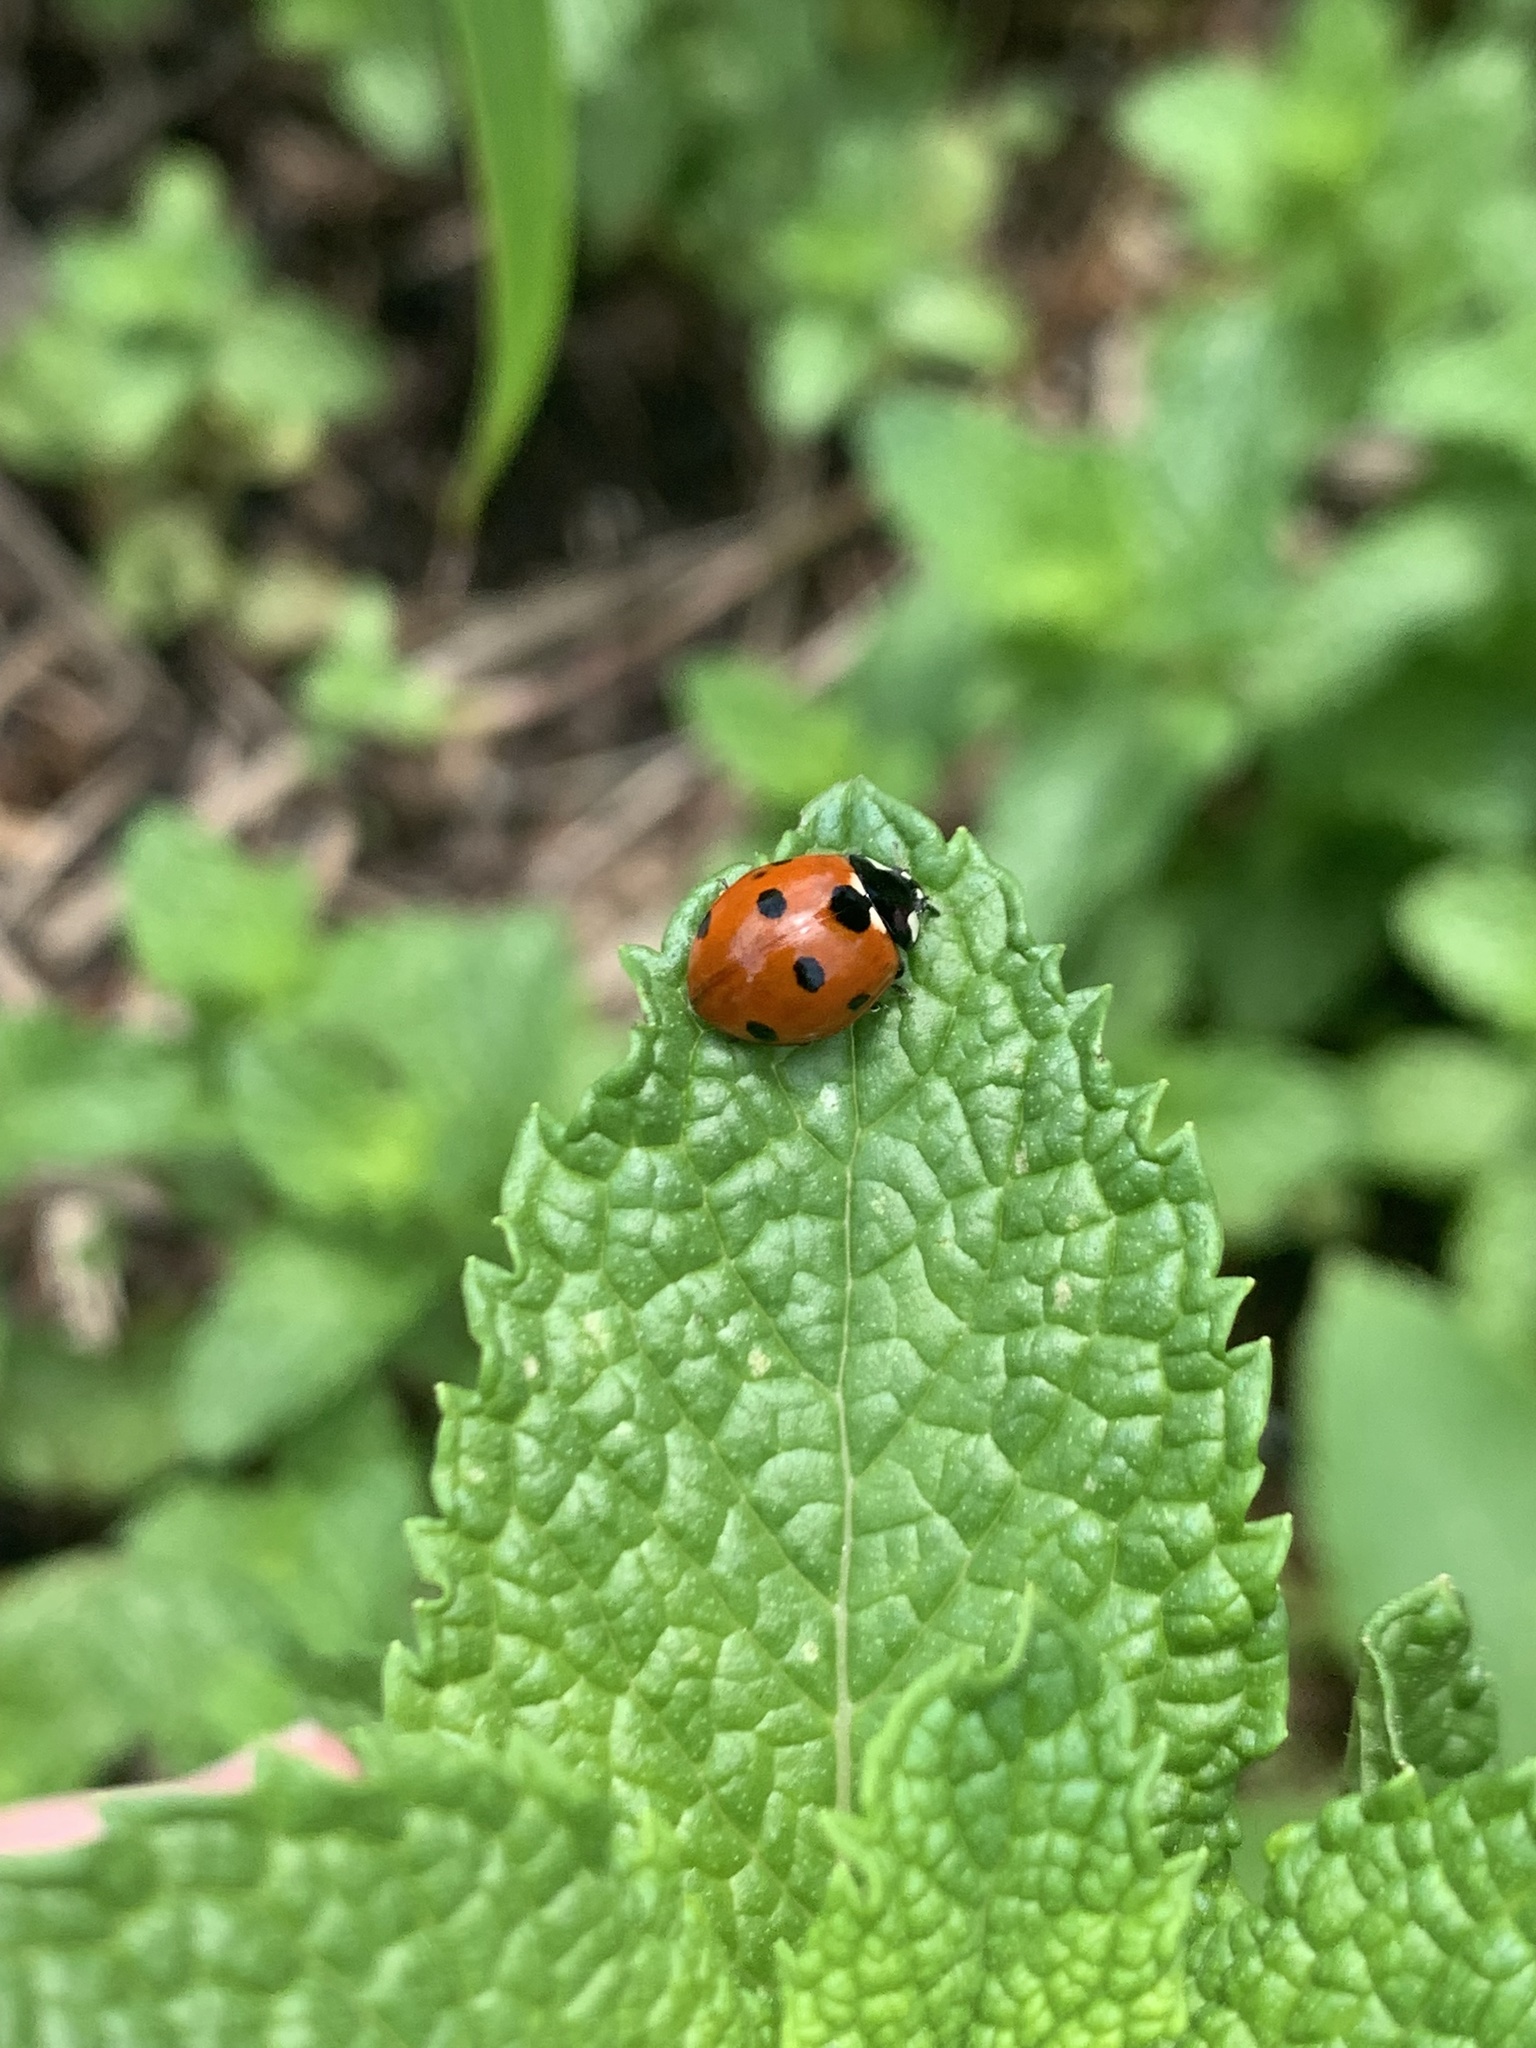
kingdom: Animalia
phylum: Arthropoda
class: Insecta
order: Coleoptera
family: Coccinellidae
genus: Coccinella
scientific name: Coccinella septempunctata
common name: Sevenspotted lady beetle
